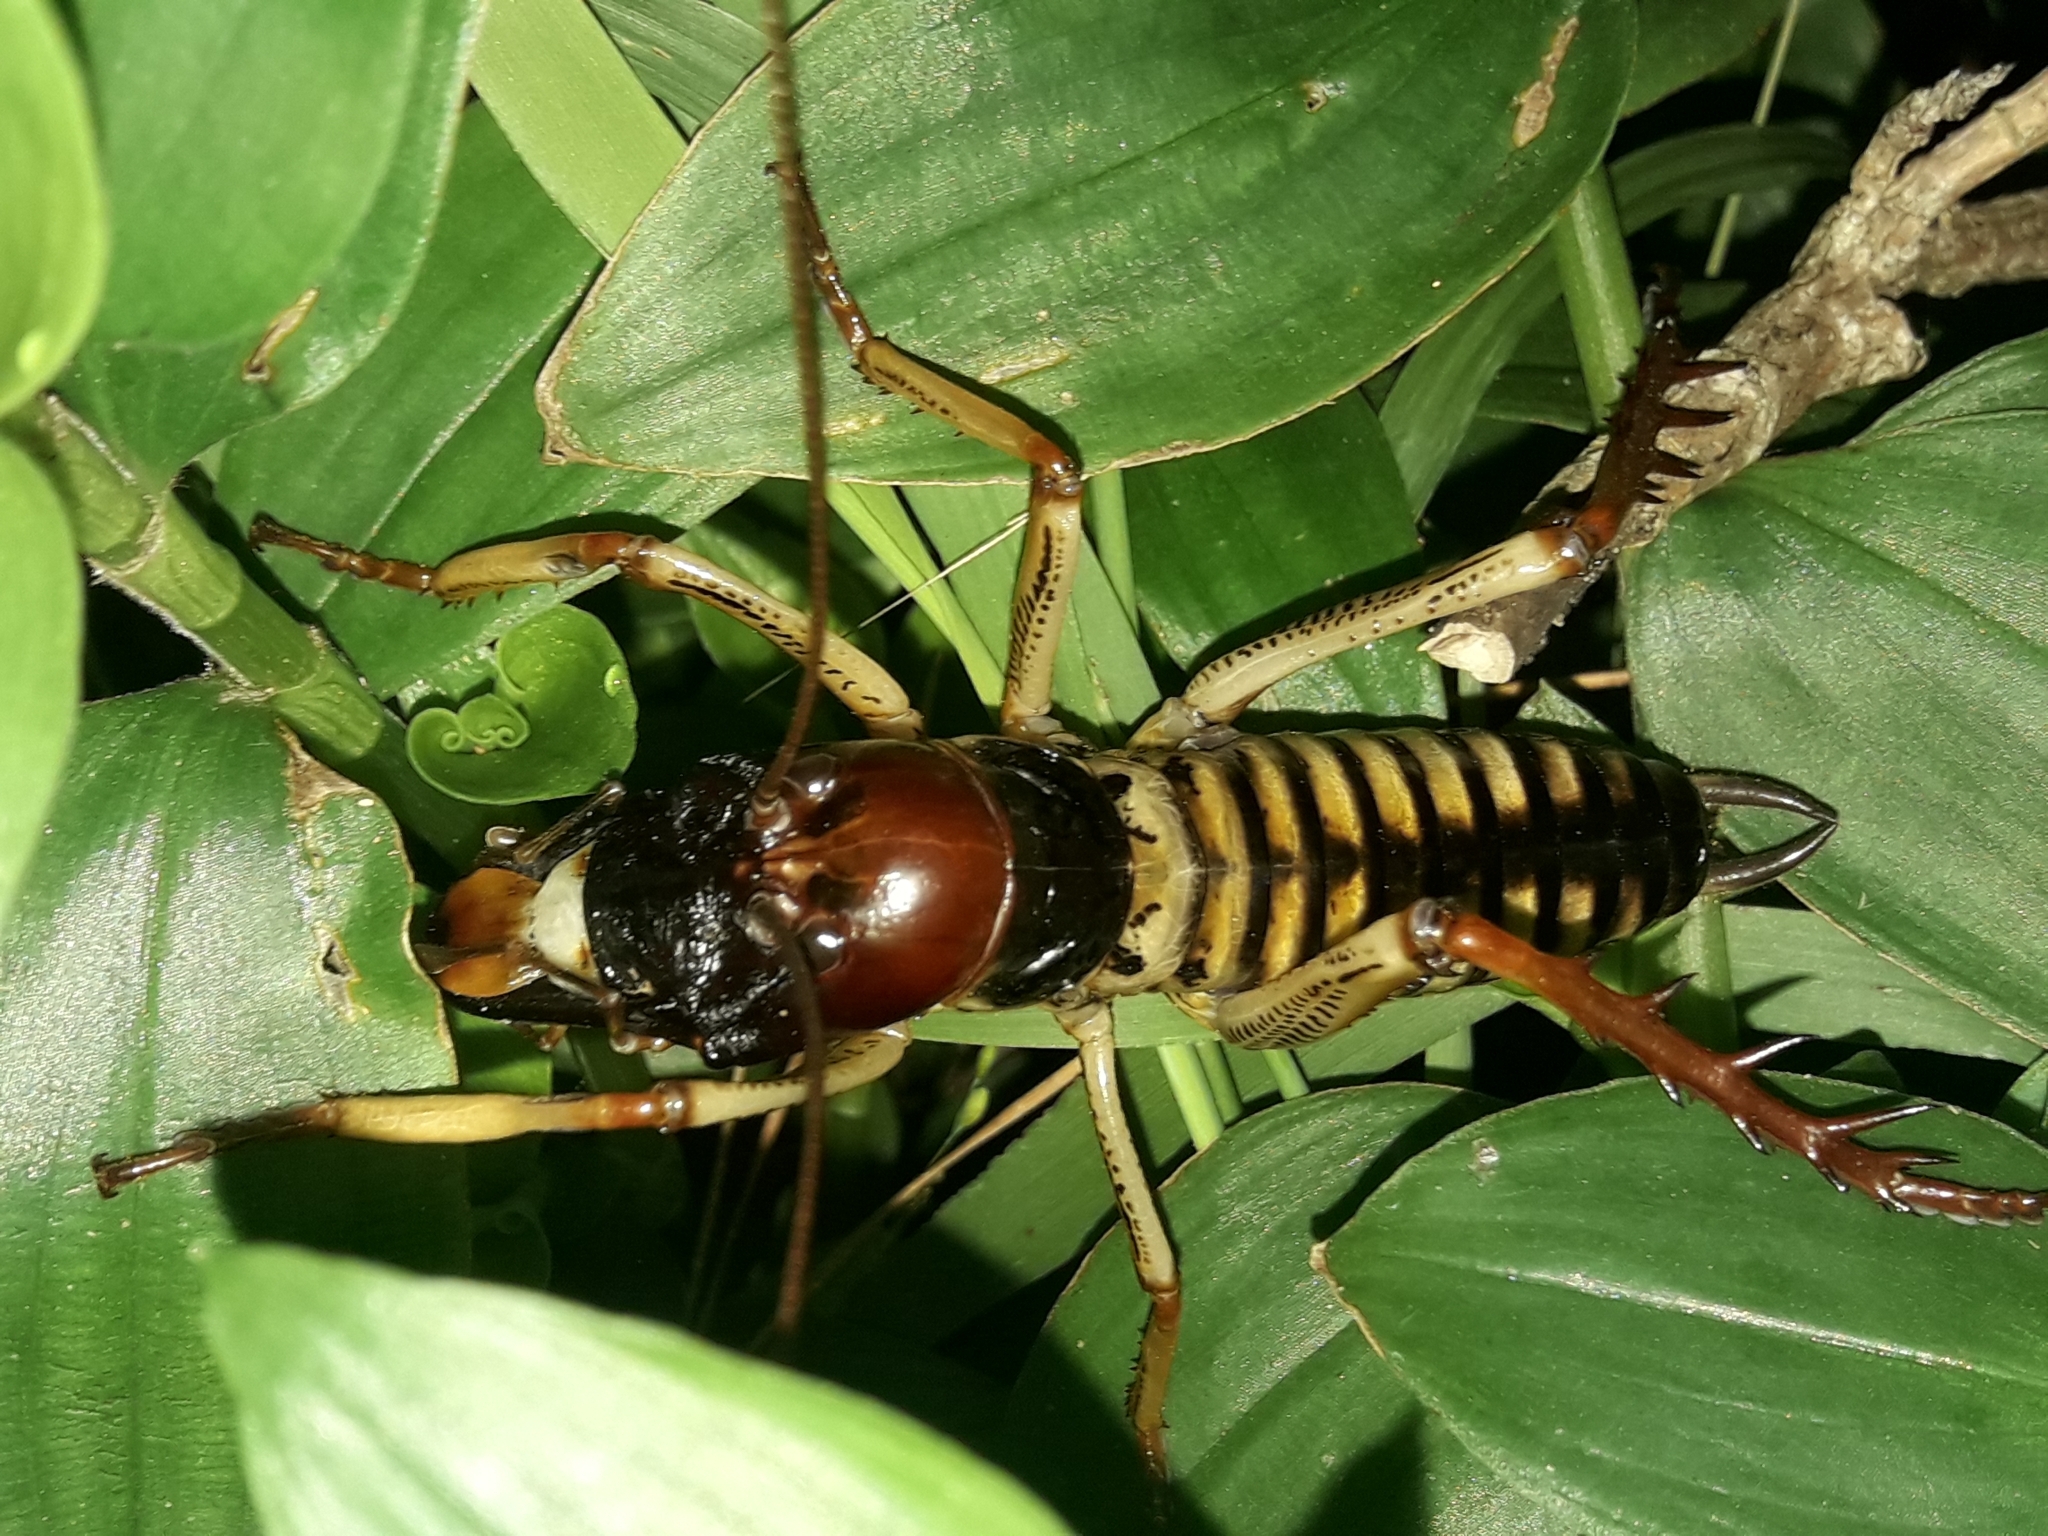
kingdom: Animalia
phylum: Arthropoda
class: Insecta
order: Orthoptera
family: Anostostomatidae
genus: Hemideina
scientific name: Hemideina crassidens
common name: Wellington tree weta
